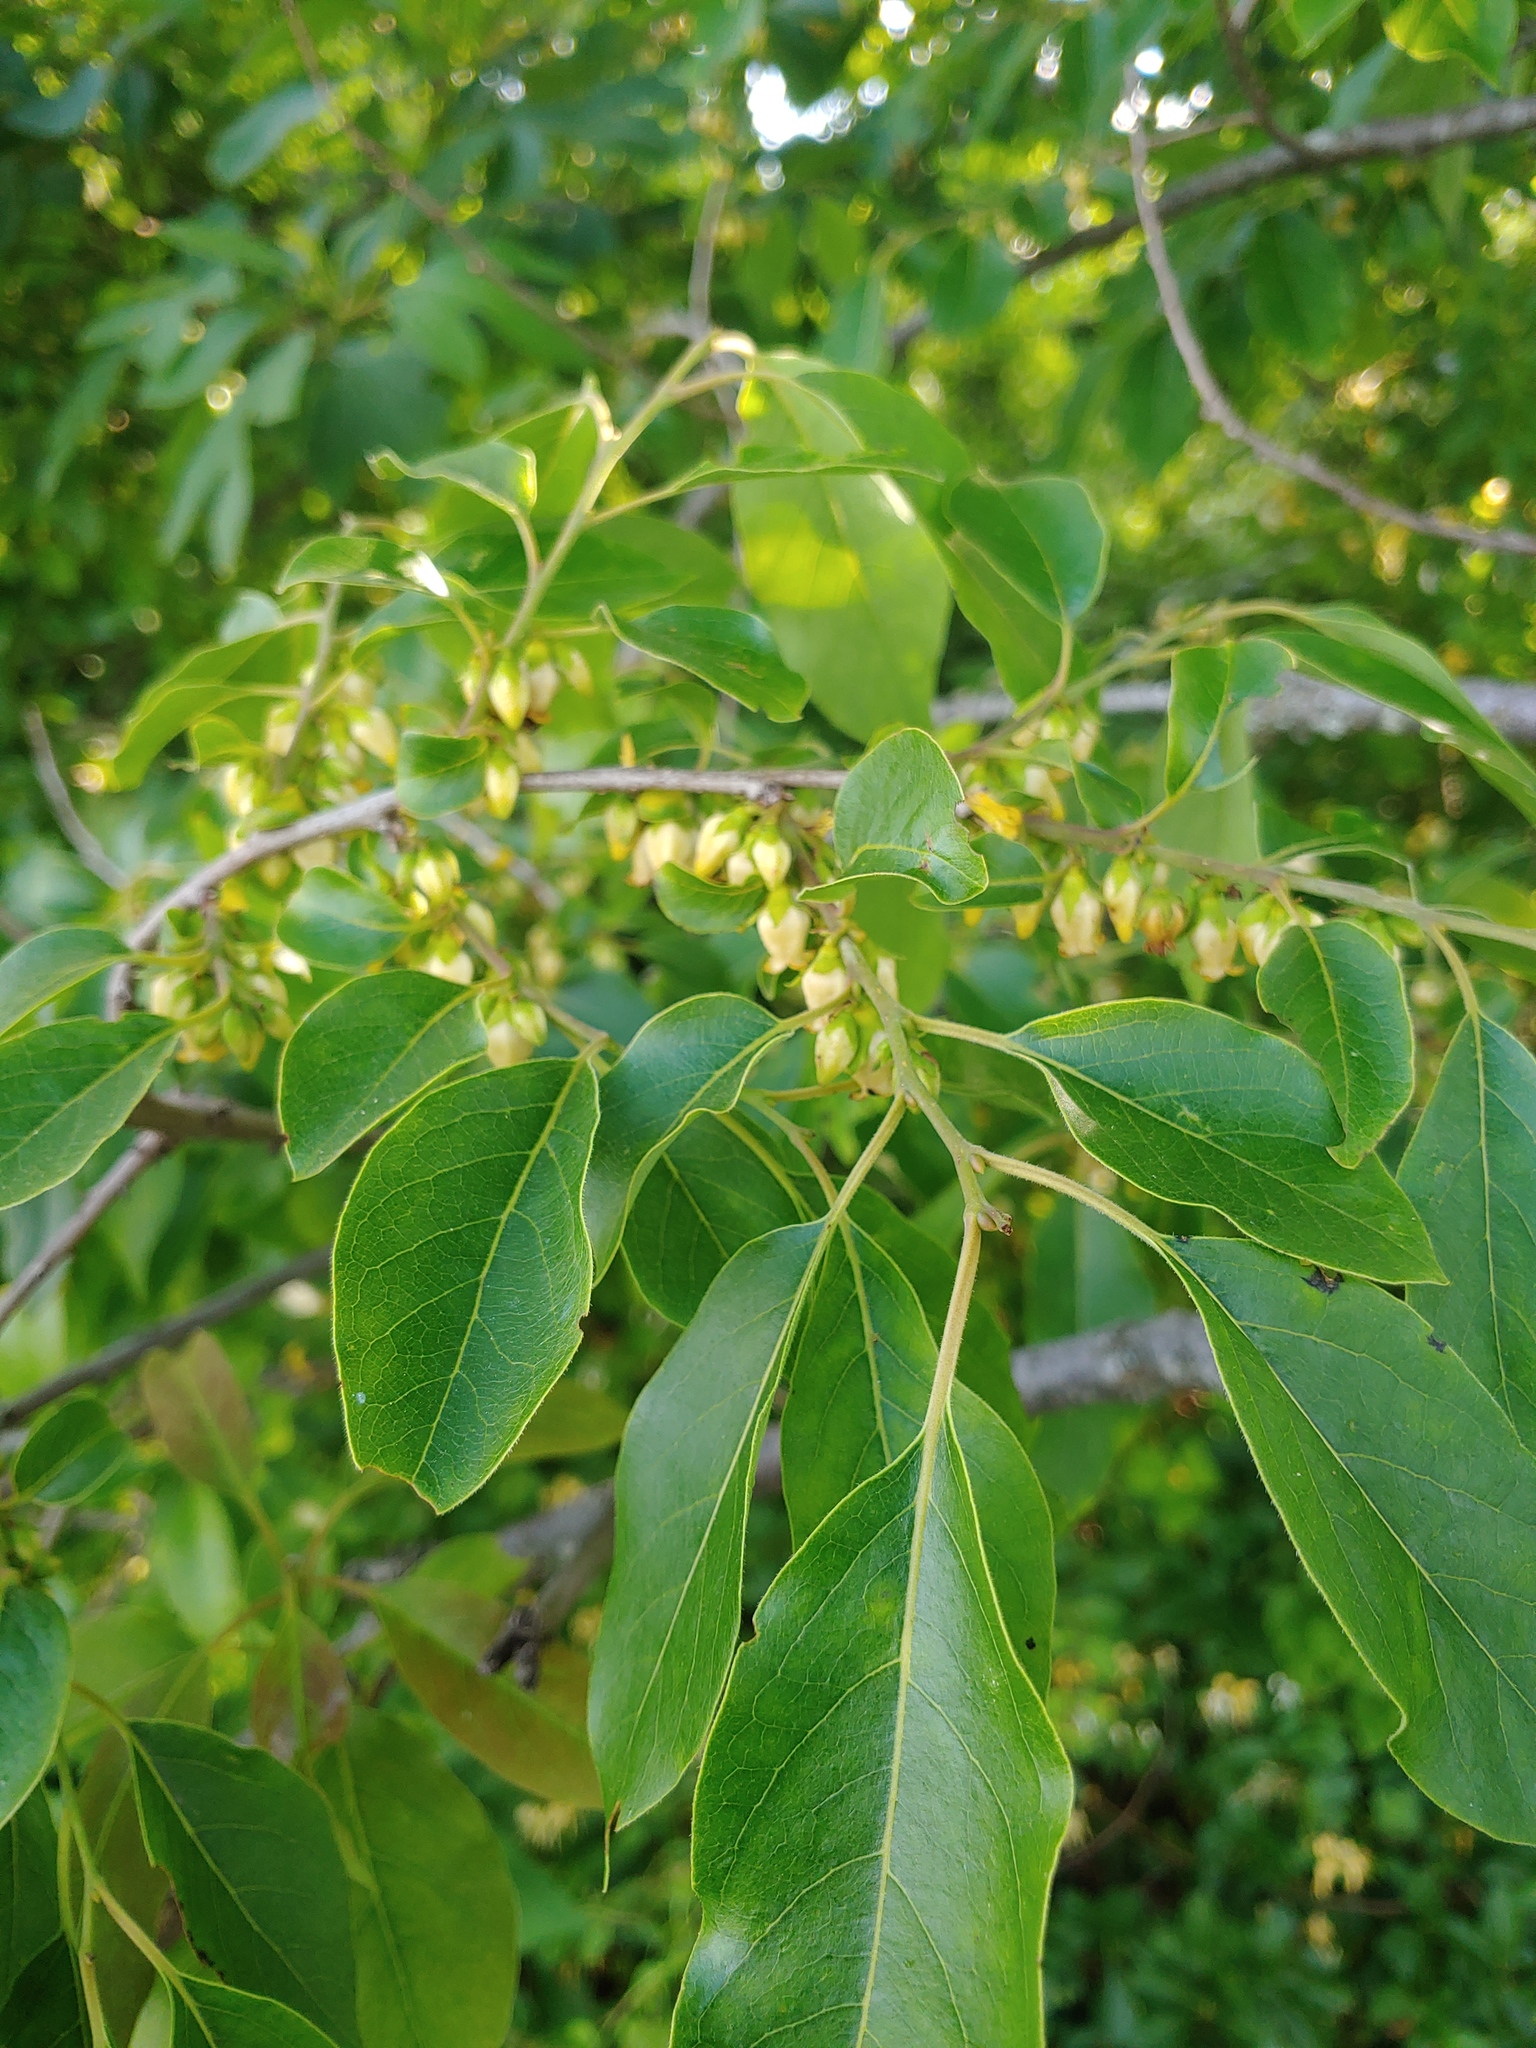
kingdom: Plantae
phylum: Tracheophyta
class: Magnoliopsida
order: Ericales
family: Ebenaceae
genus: Diospyros
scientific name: Diospyros virginiana
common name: Persimmon
